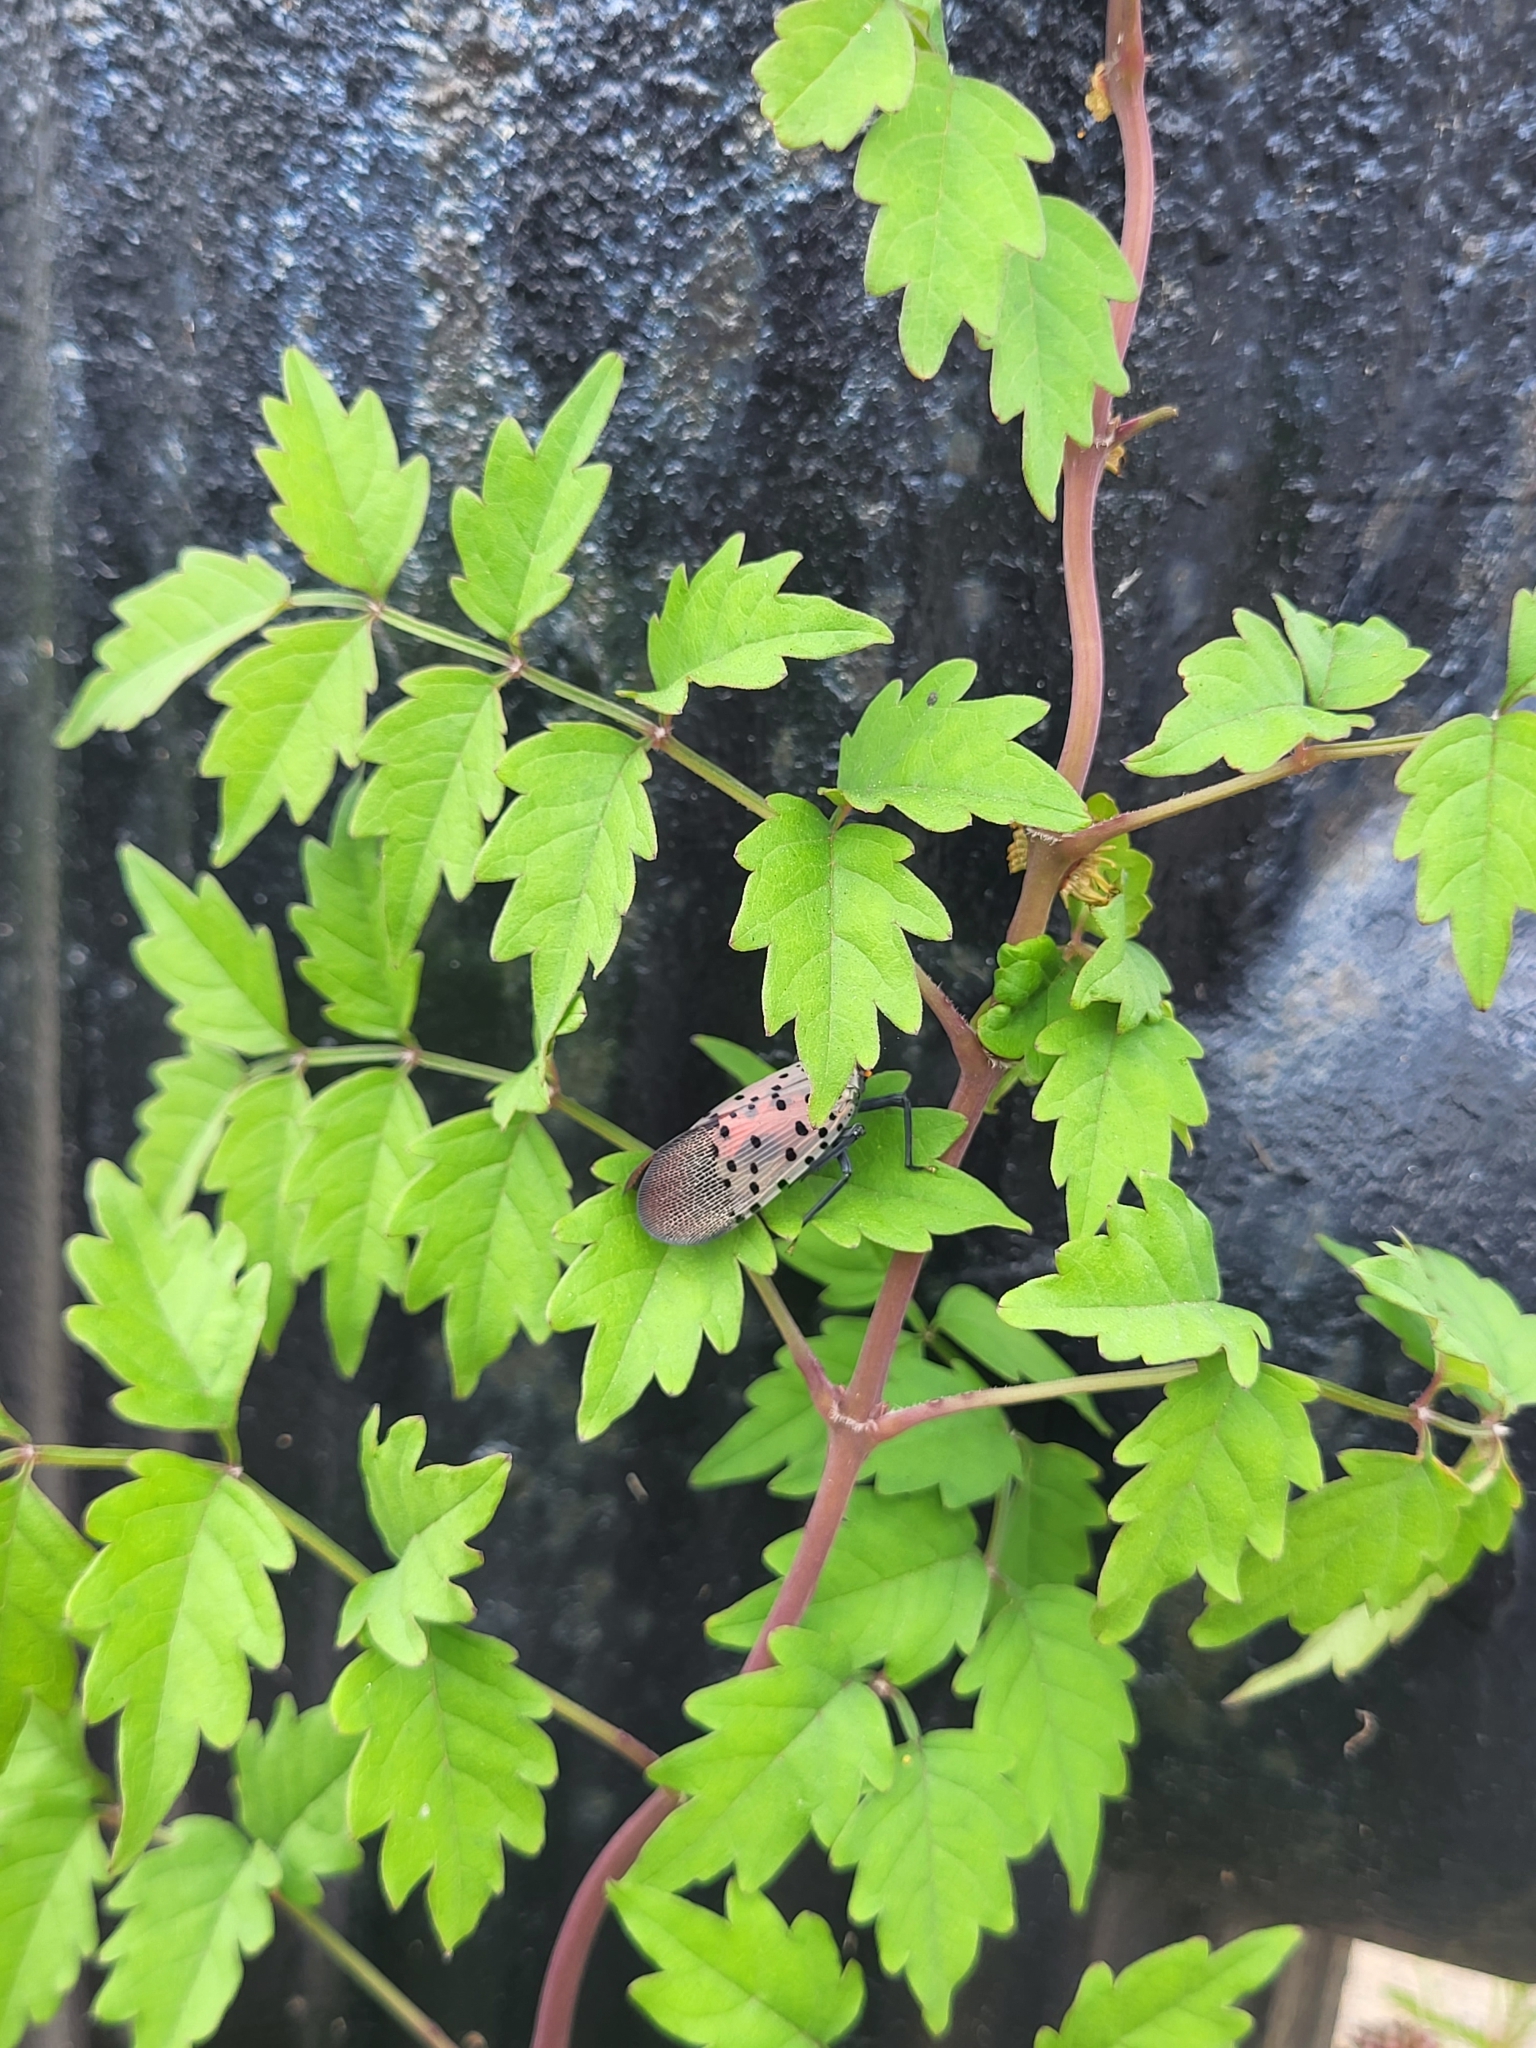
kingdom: Plantae
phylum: Tracheophyta
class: Magnoliopsida
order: Lamiales
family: Bignoniaceae
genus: Campsis
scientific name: Campsis radicans
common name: Trumpet-creeper
